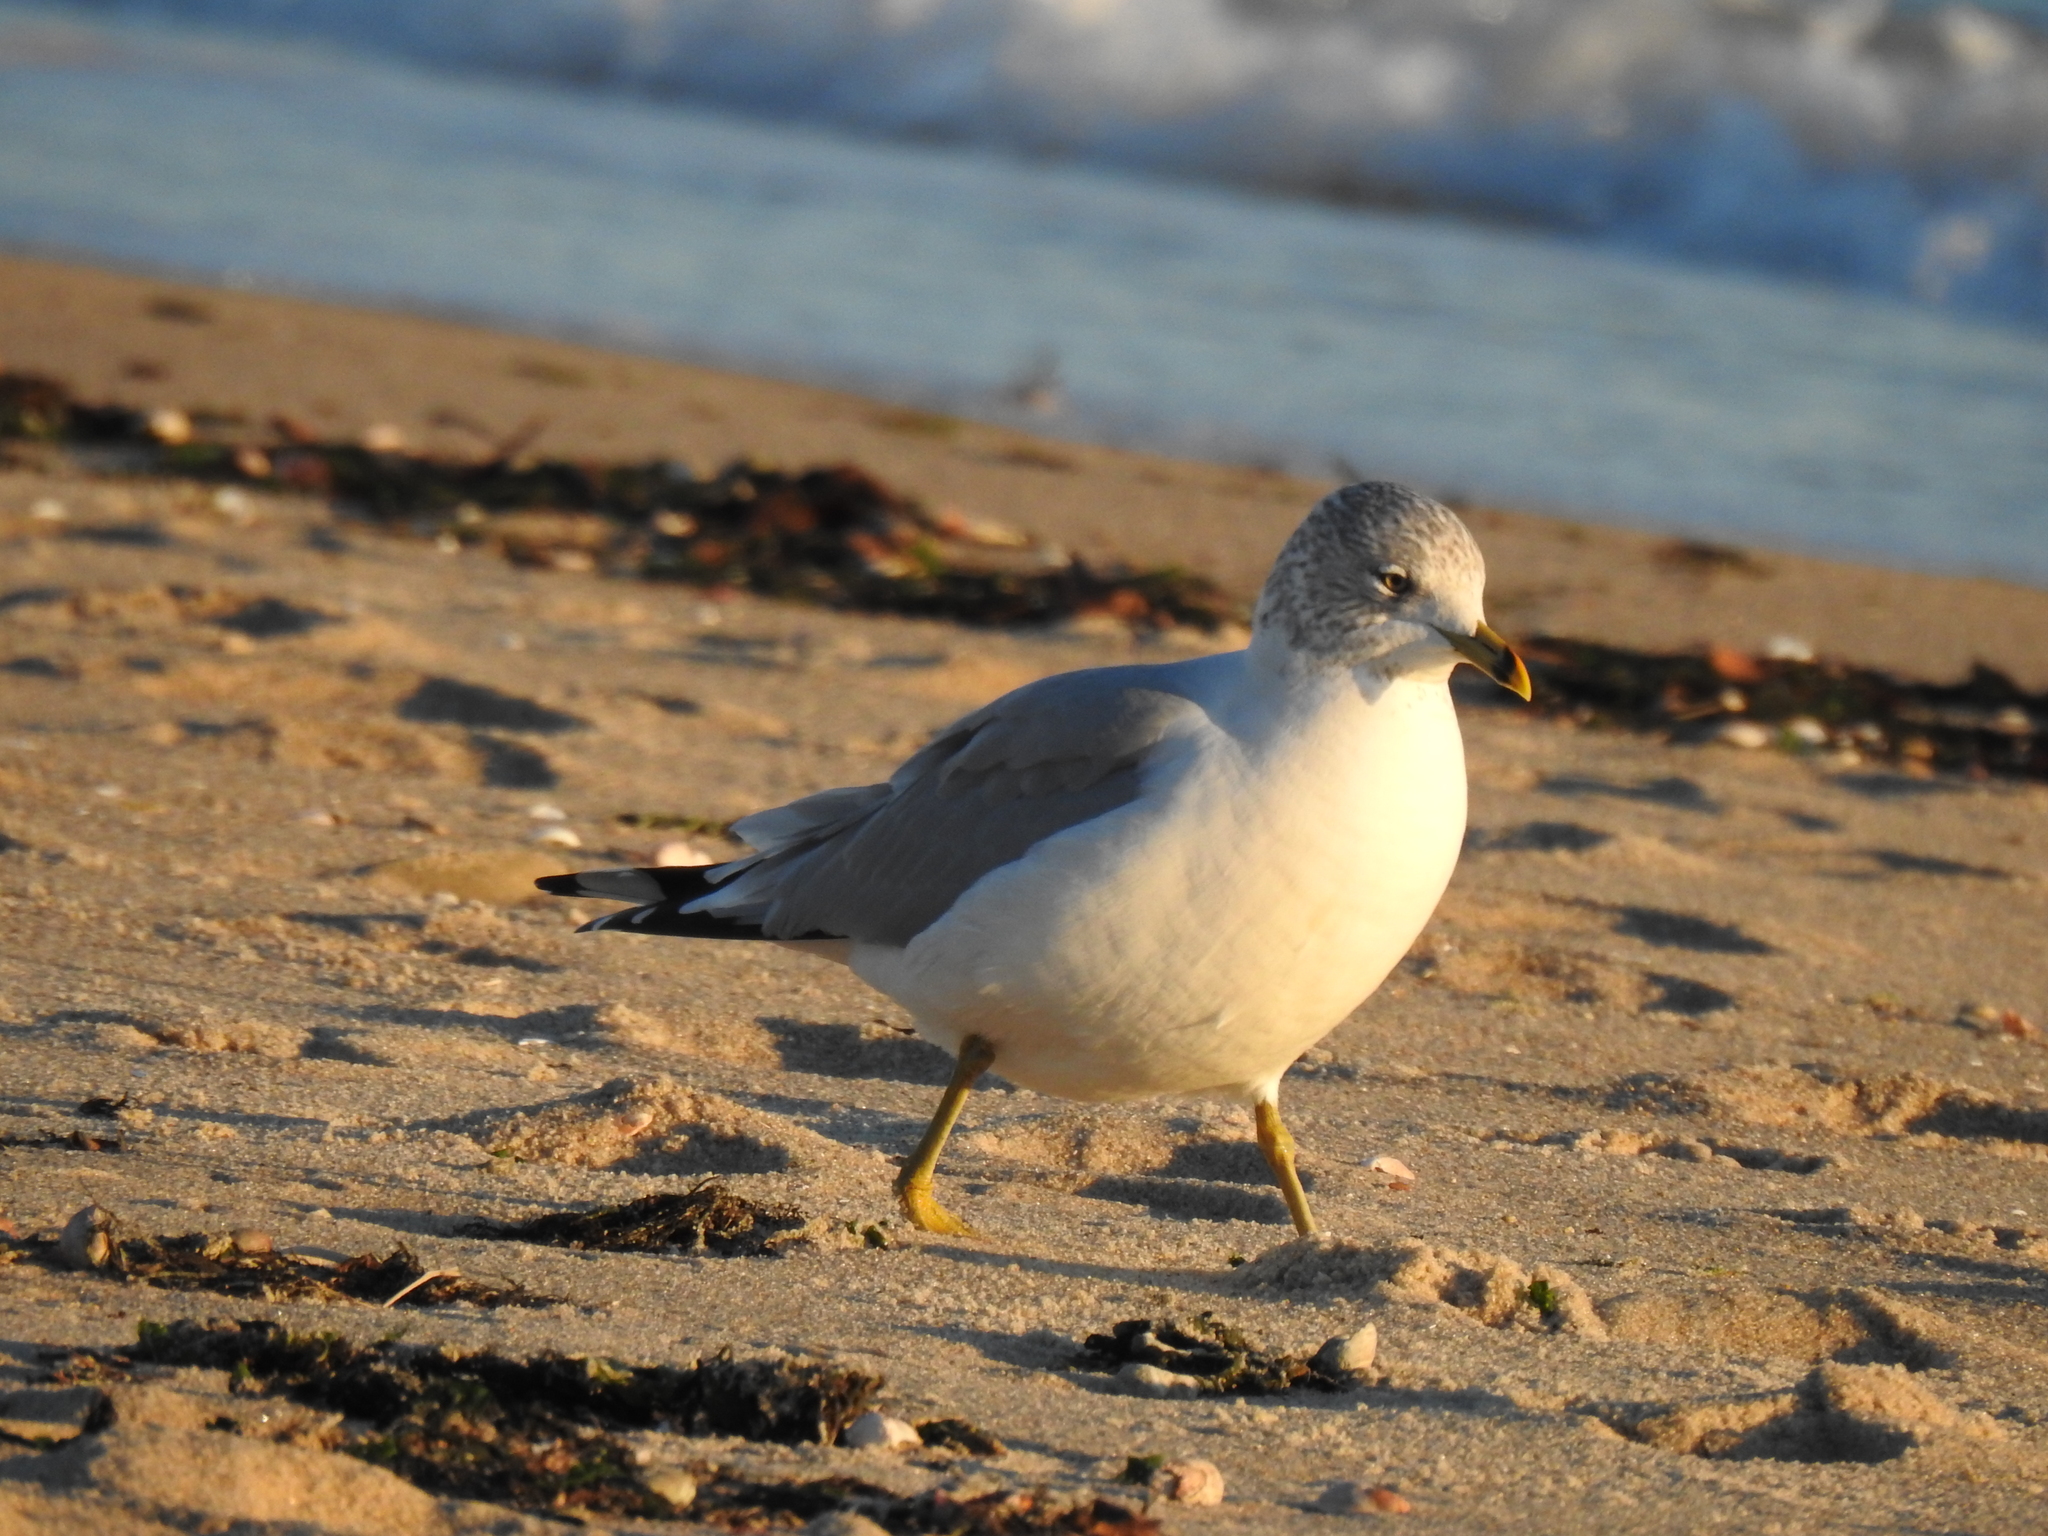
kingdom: Animalia
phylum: Chordata
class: Aves
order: Charadriiformes
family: Laridae
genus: Larus
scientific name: Larus delawarensis
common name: Ring-billed gull
